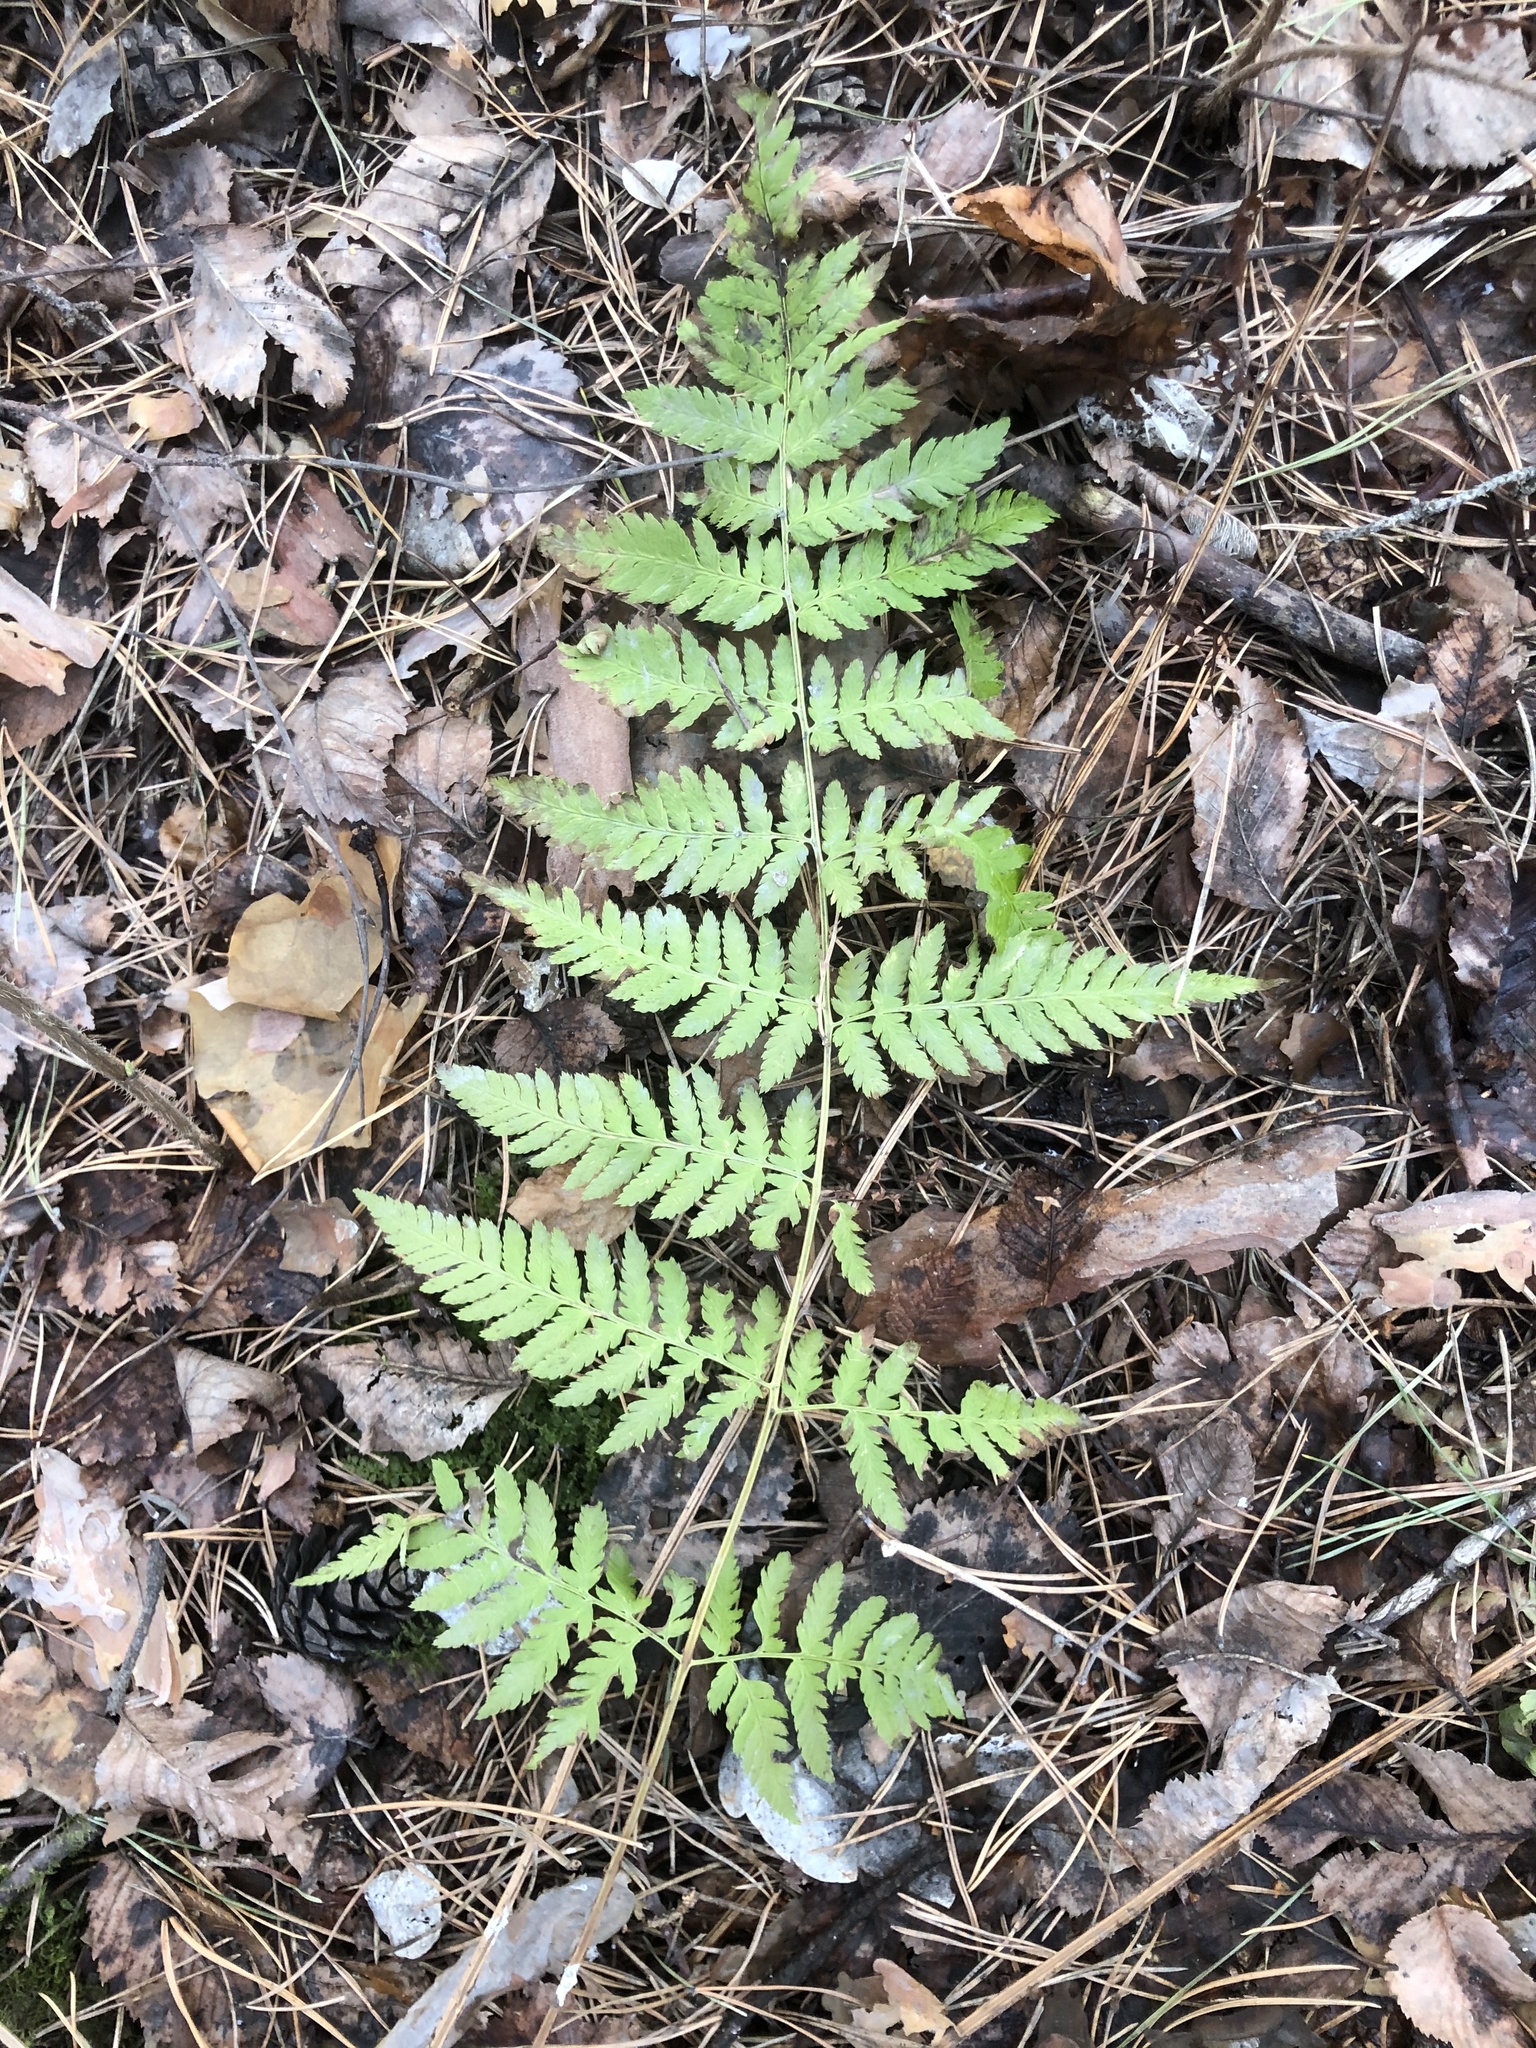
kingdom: Plantae
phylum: Tracheophyta
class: Polypodiopsida
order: Polypodiales
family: Dryopteridaceae
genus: Dryopteris
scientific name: Dryopteris carthusiana
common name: Narrow buckler-fern
